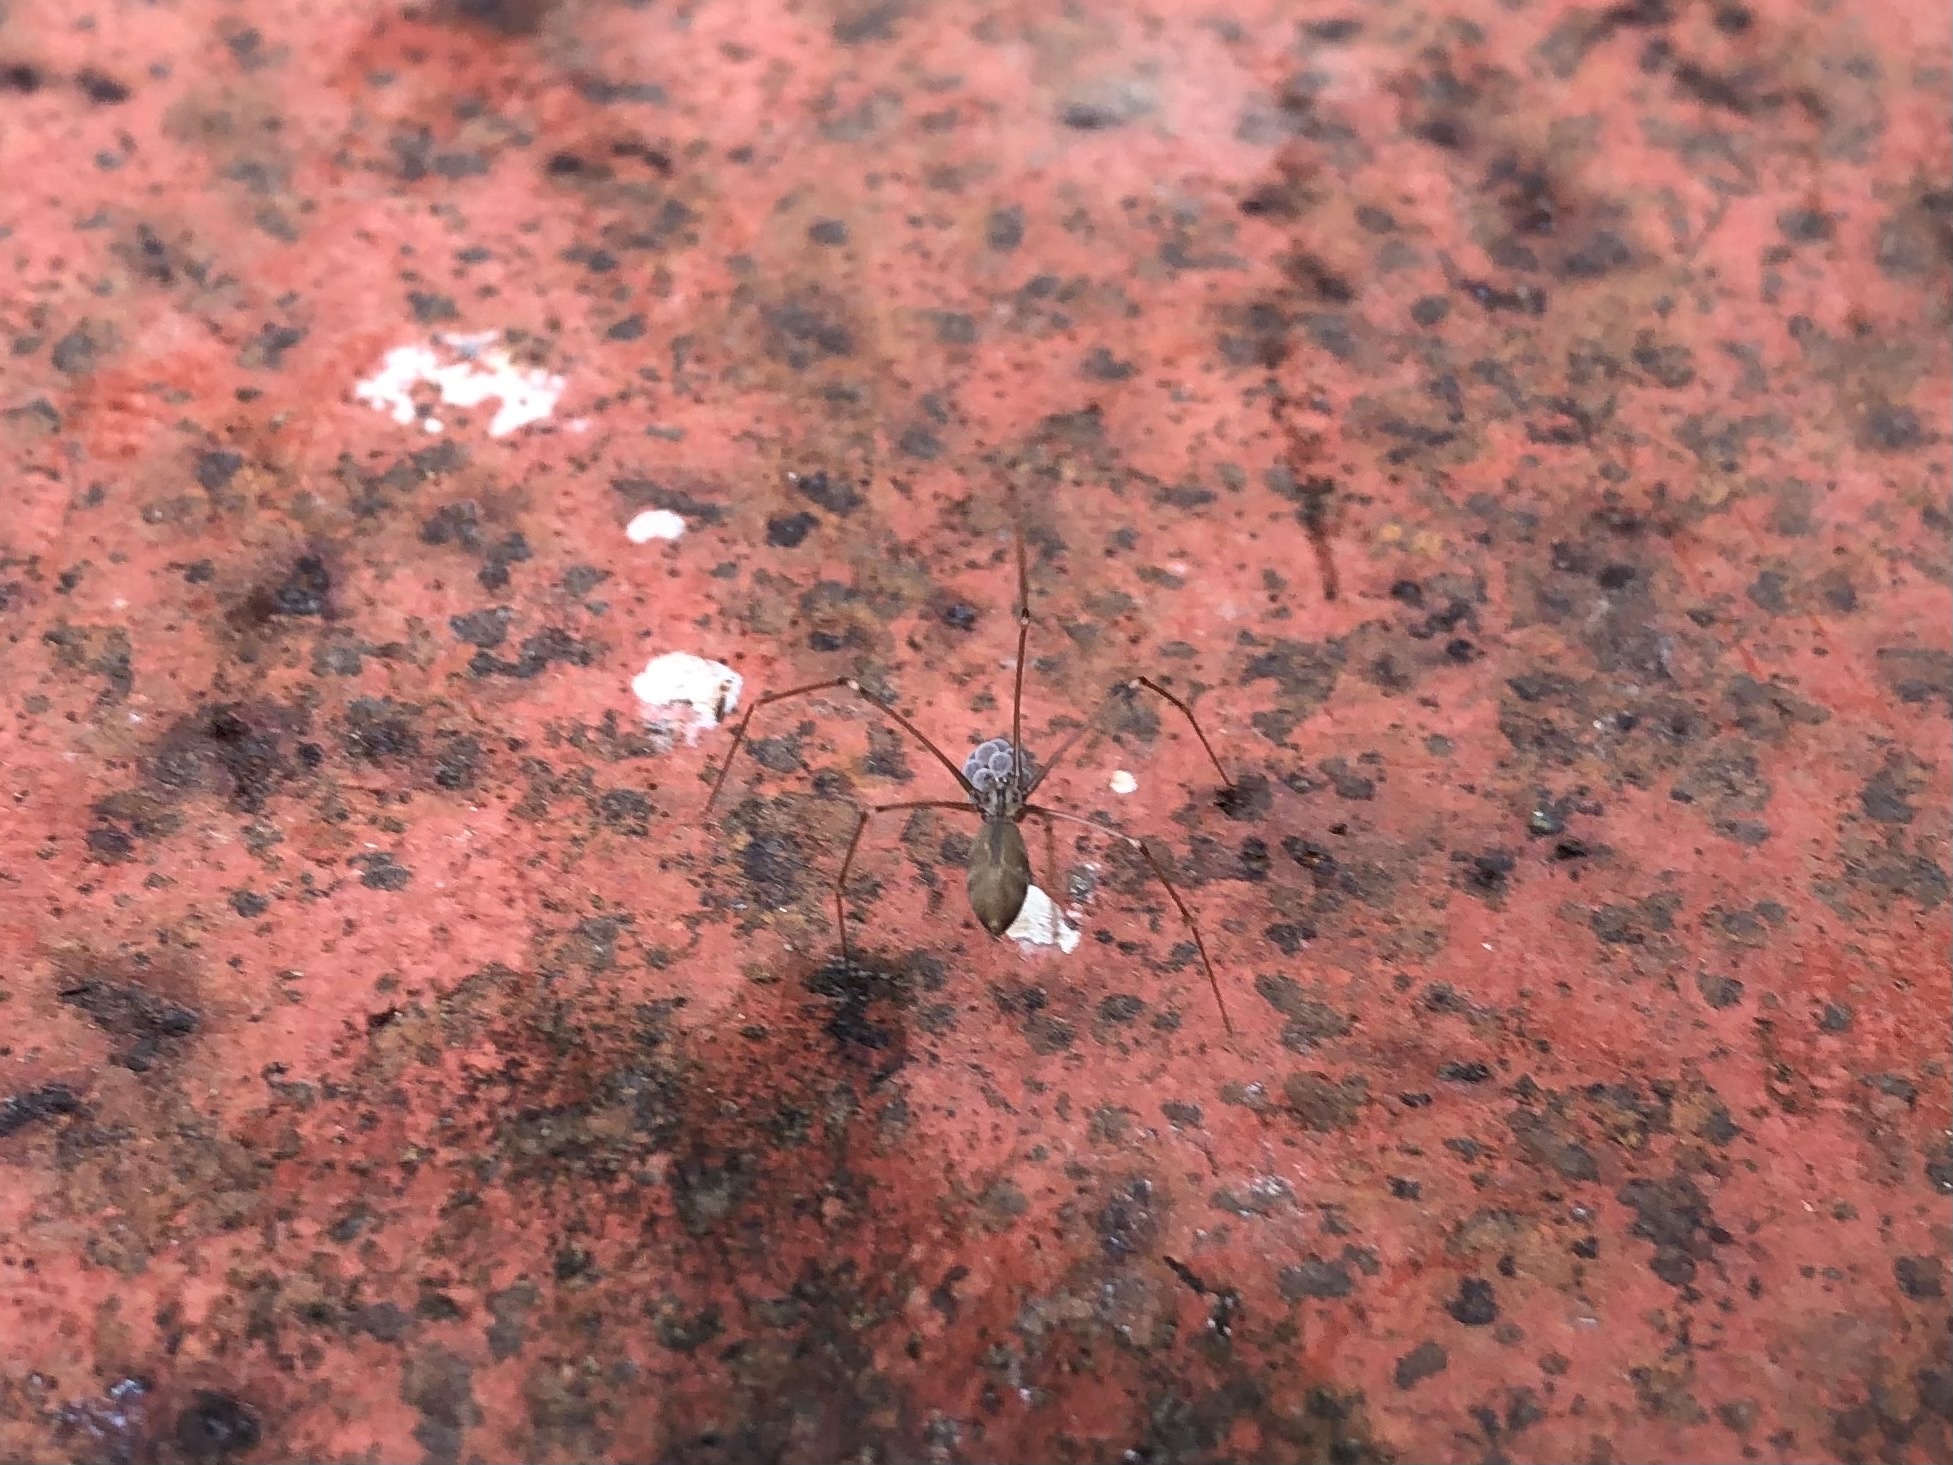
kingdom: Animalia
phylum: Arthropoda
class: Arachnida
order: Araneae
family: Pholcidae
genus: Pholcus
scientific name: Pholcus opilionoides
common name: Daddylongleg spider
